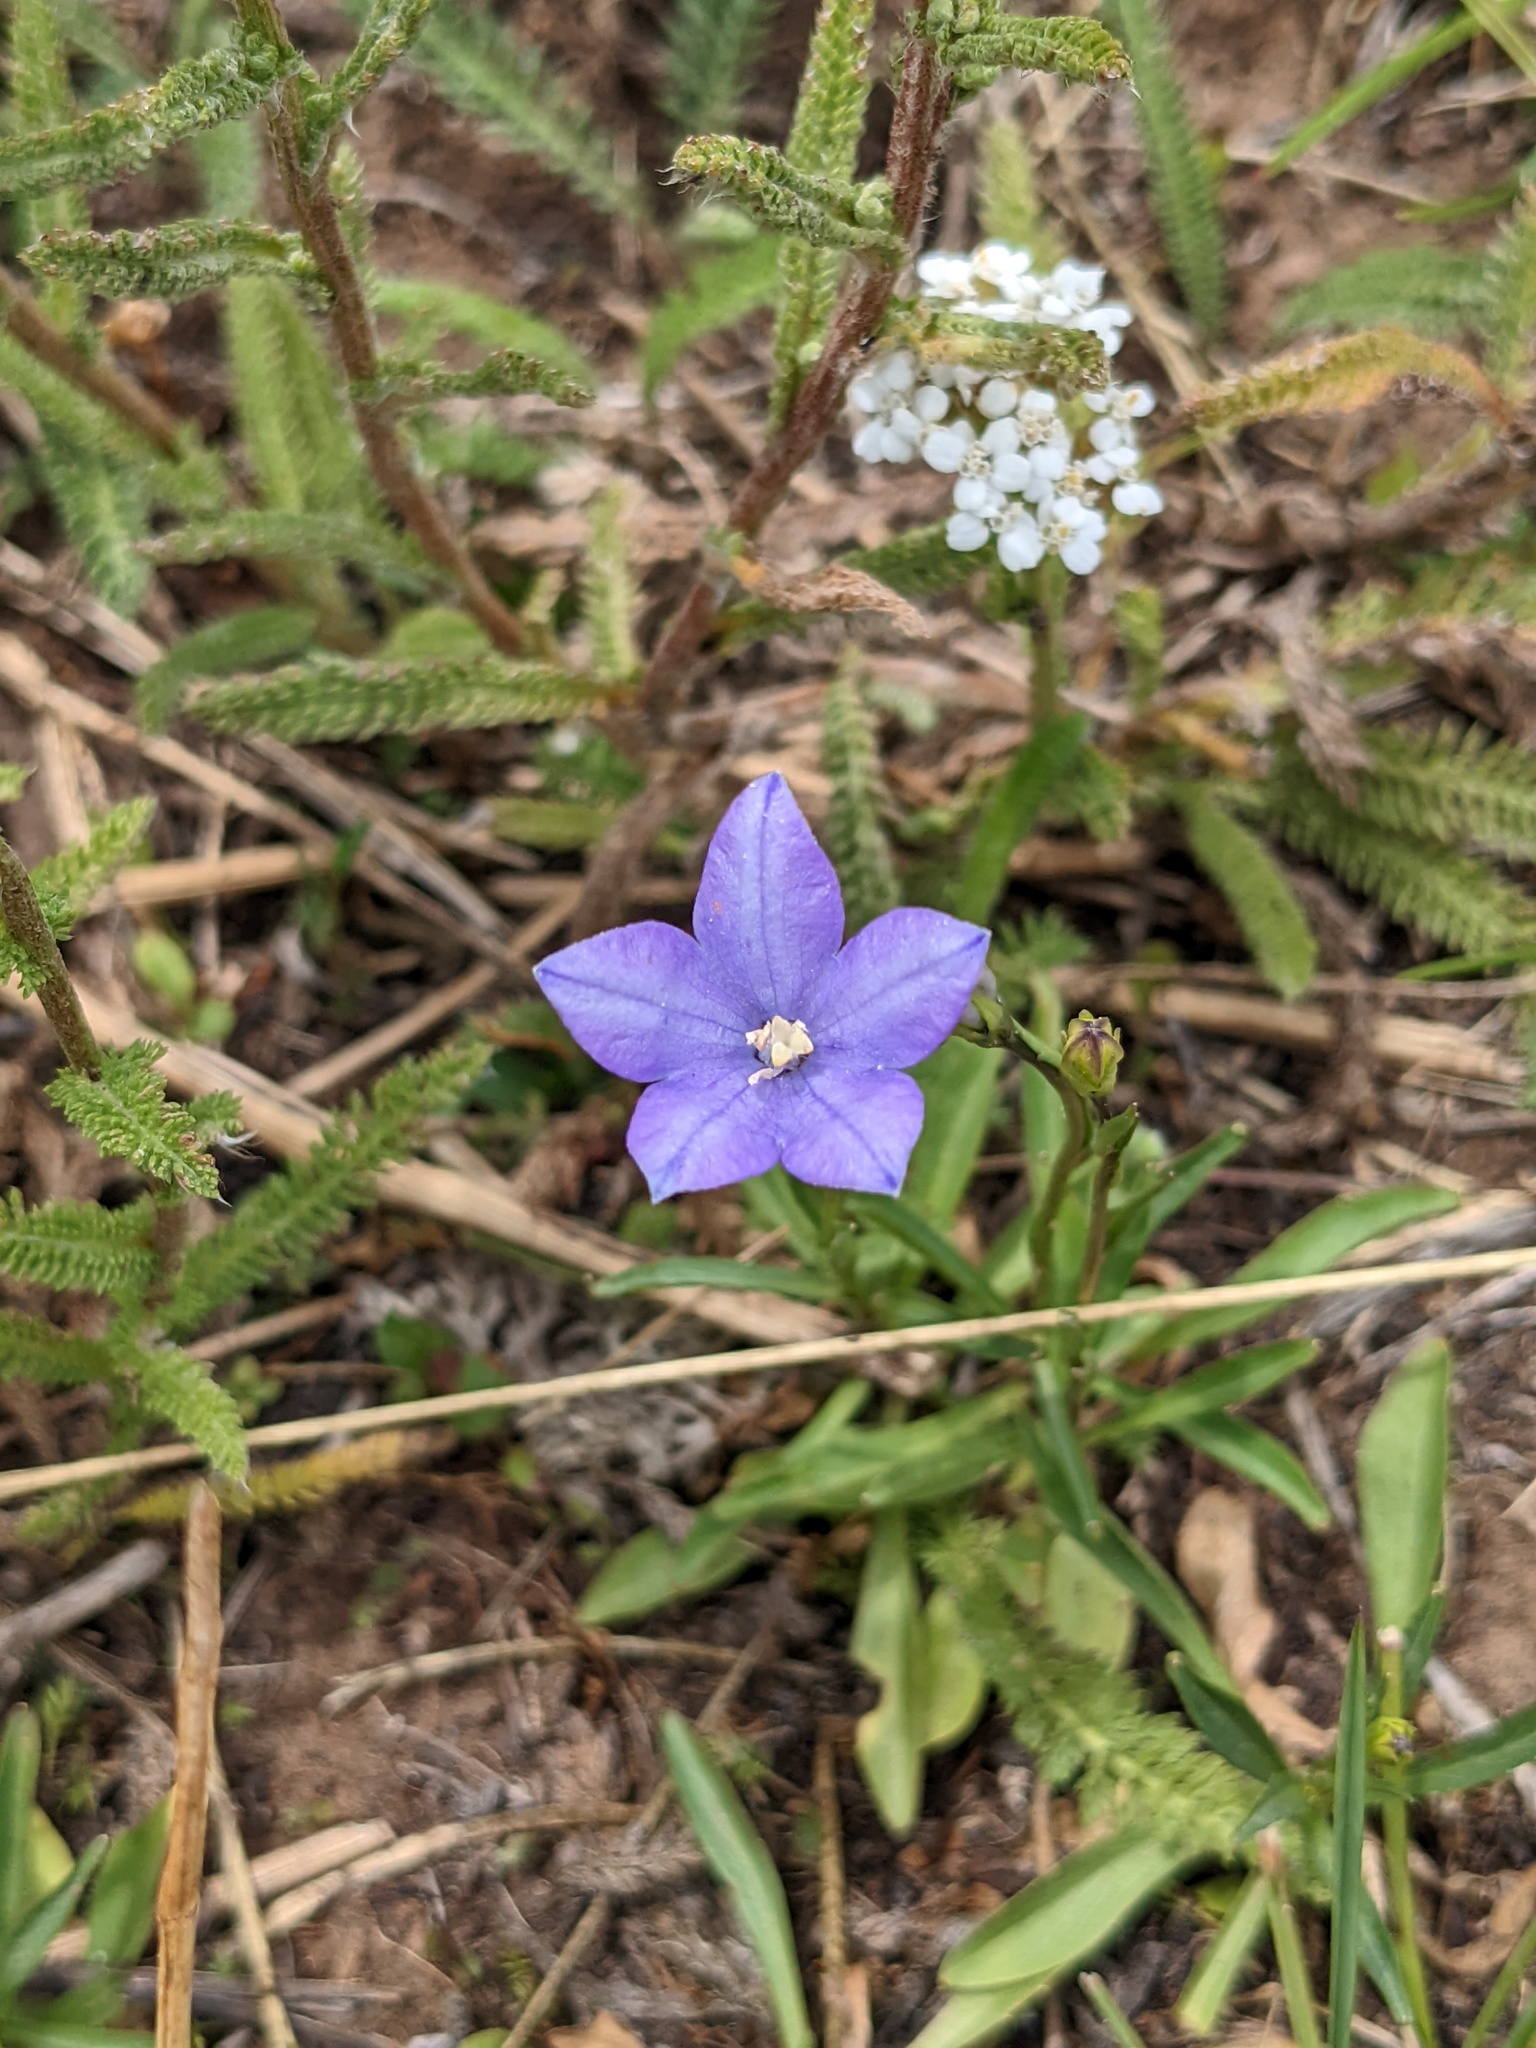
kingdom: Plantae
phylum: Tracheophyta
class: Magnoliopsida
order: Asterales
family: Campanulaceae
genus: Campanula
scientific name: Campanula parryi
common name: Rocky mountain bellflower
